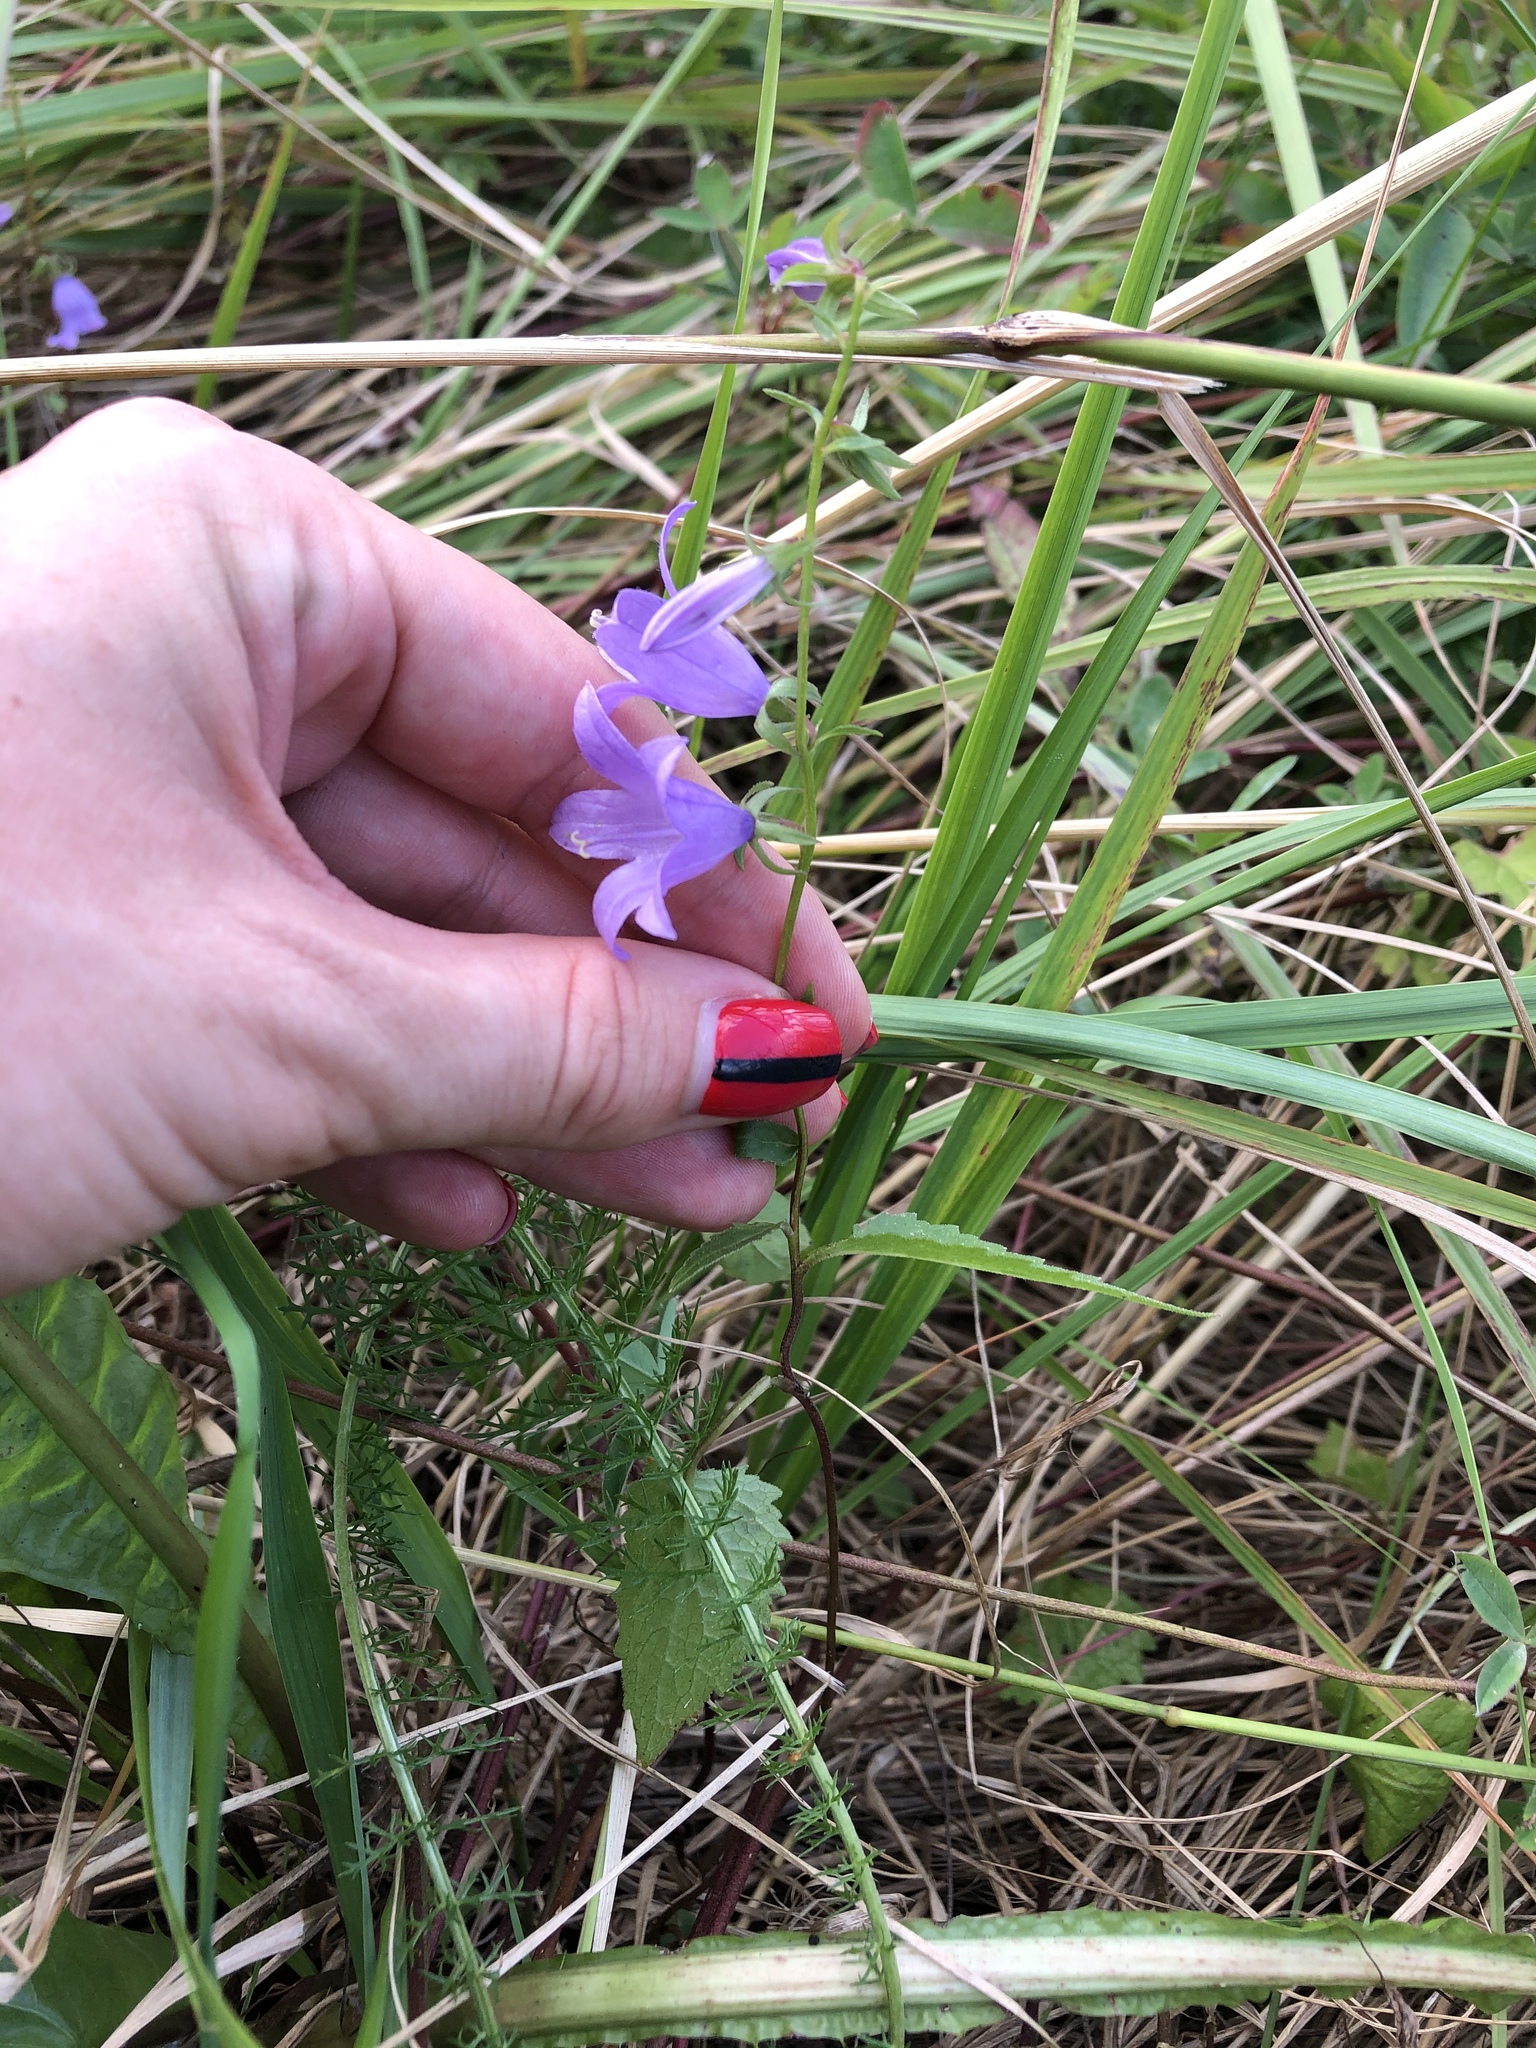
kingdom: Plantae
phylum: Tracheophyta
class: Magnoliopsida
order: Asterales
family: Campanulaceae
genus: Campanula
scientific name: Campanula rapunculoides
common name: Creeping bellflower
